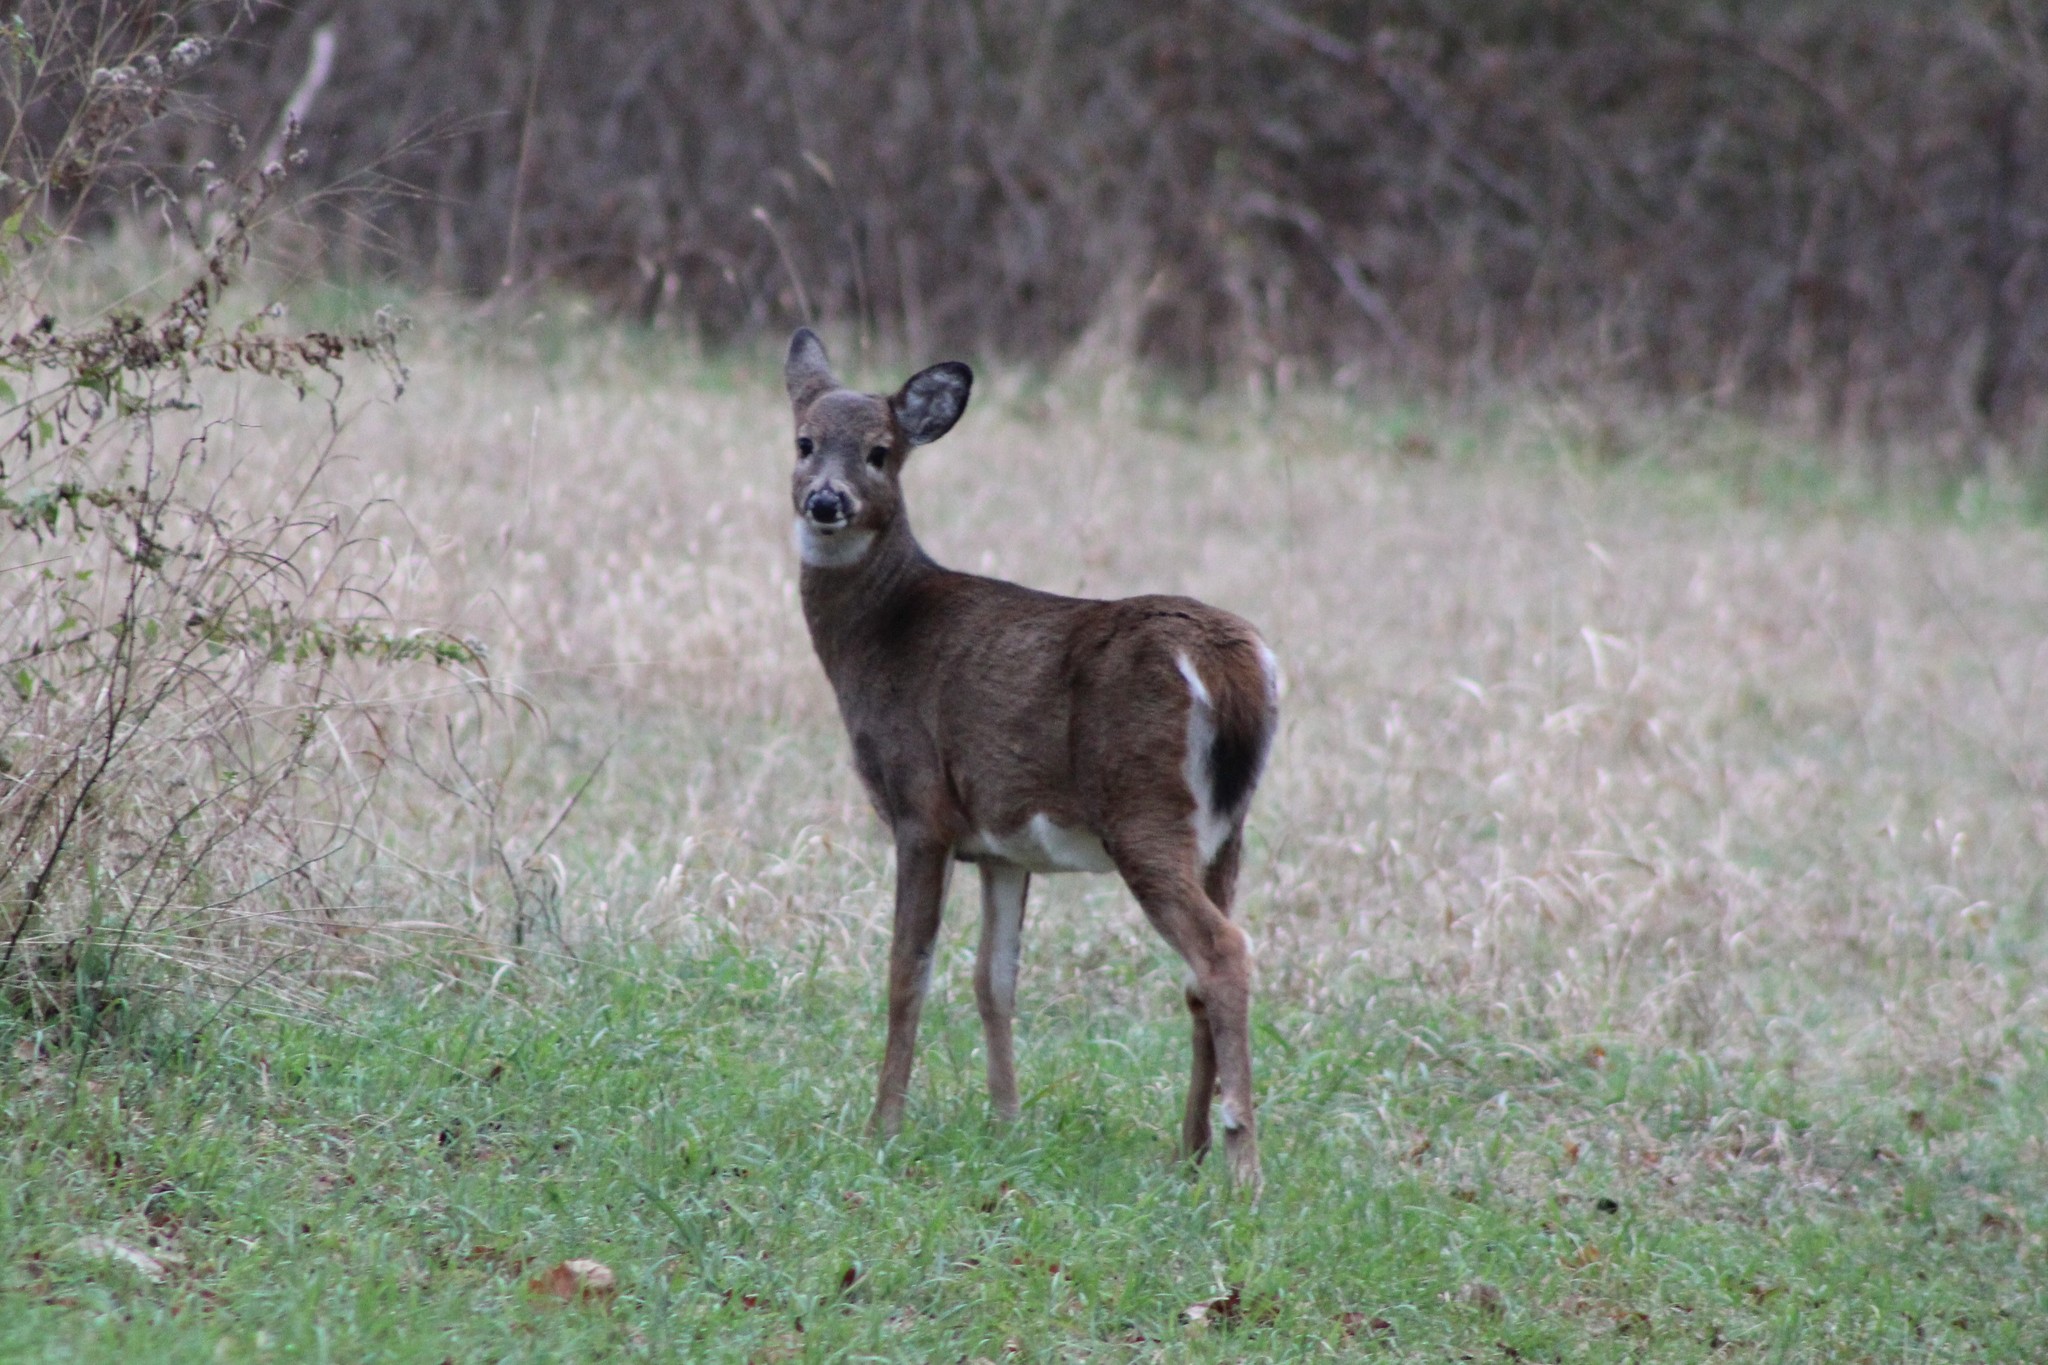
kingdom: Animalia
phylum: Chordata
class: Mammalia
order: Artiodactyla
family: Cervidae
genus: Odocoileus
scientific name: Odocoileus virginianus
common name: White-tailed deer
